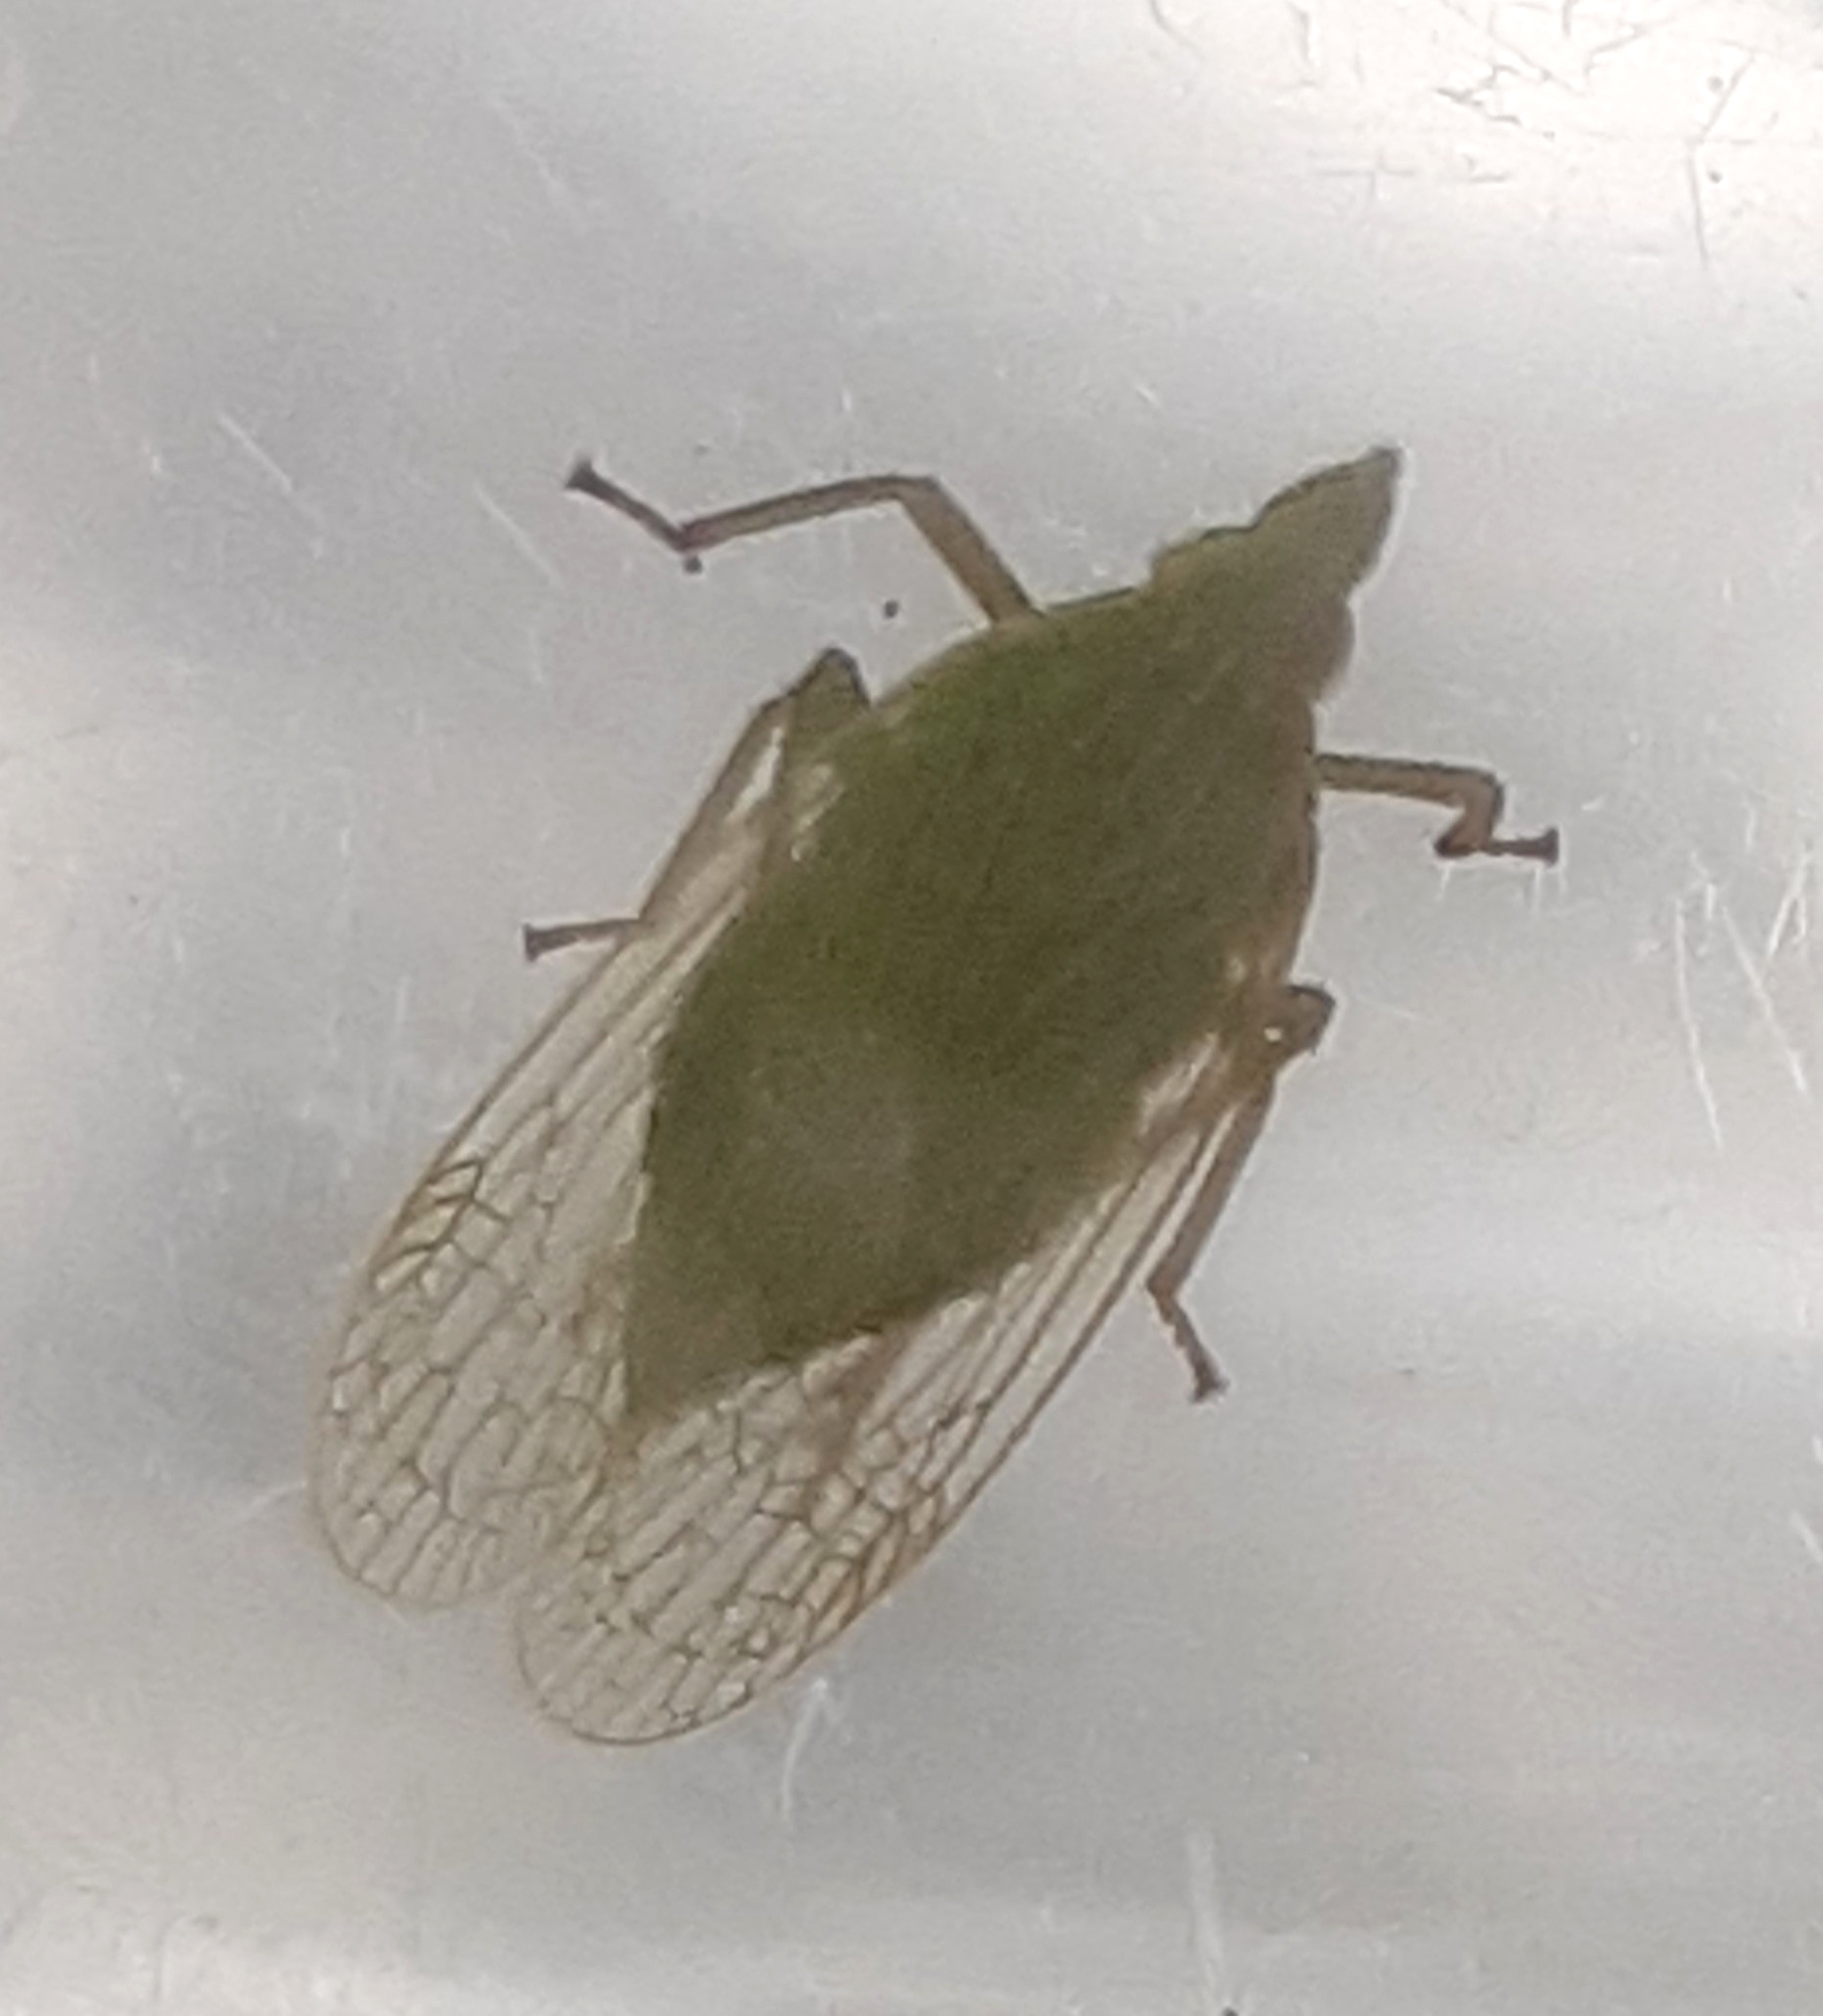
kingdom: Animalia
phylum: Arthropoda
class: Insecta
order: Hemiptera
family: Dictyopharidae
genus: Dictyophara
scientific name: Dictyophara europaea
